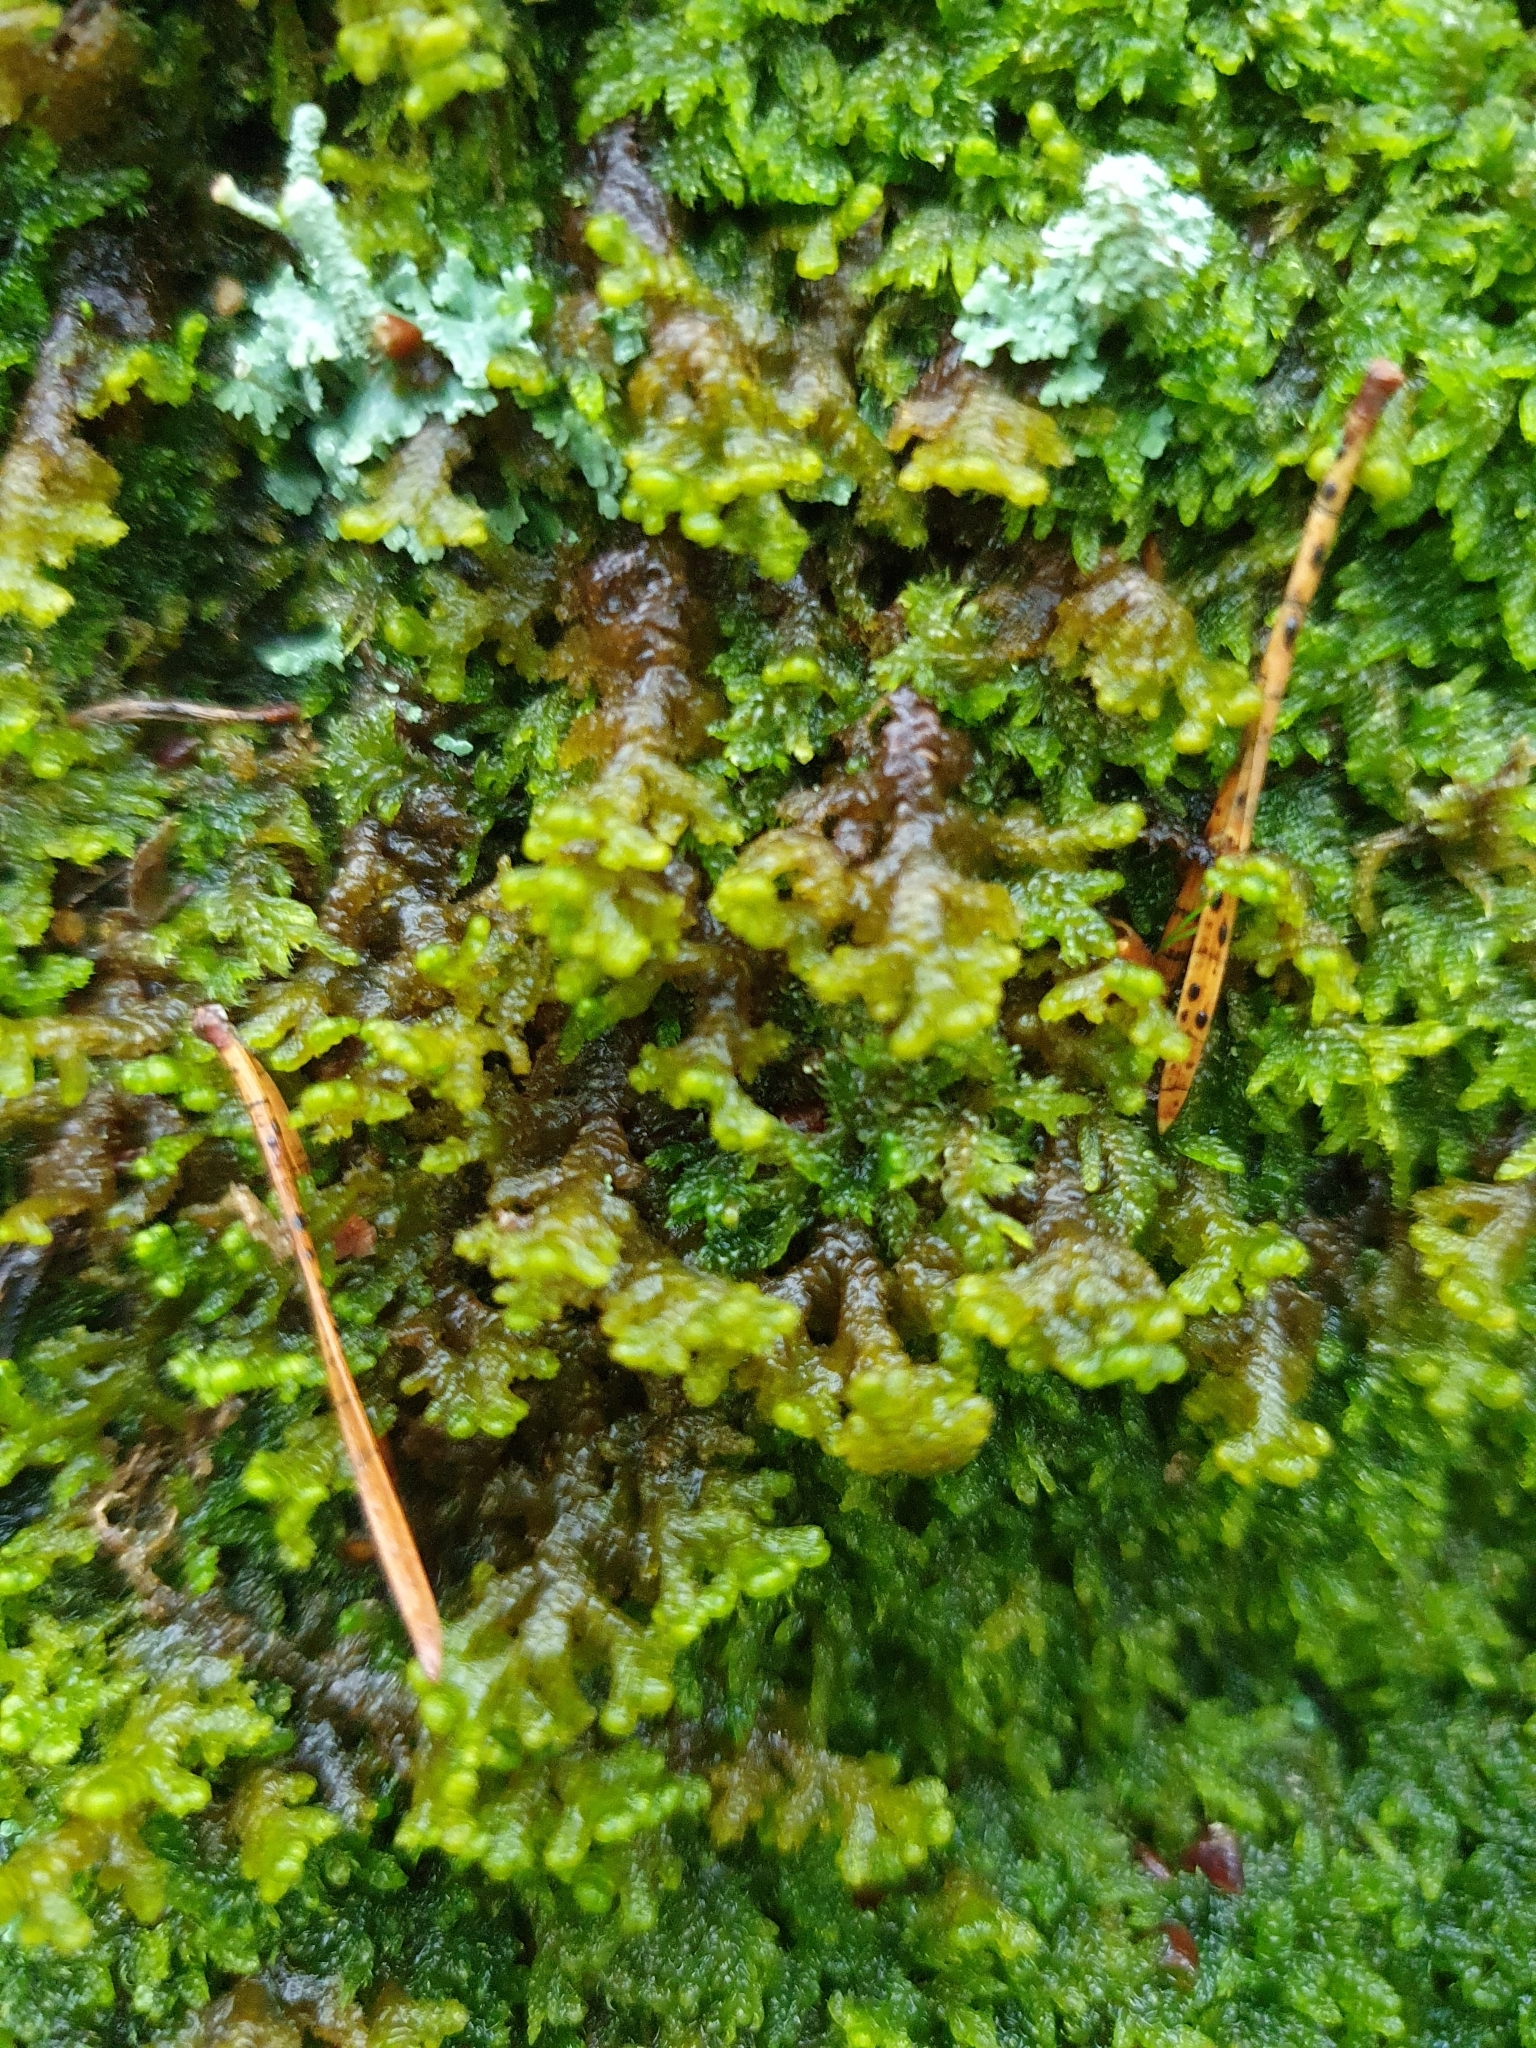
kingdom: Plantae
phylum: Marchantiophyta
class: Jungermanniopsida
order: Ptilidiales
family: Ptilidiaceae
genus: Ptilidium
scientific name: Ptilidium ciliare
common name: Ciliate fringewort
